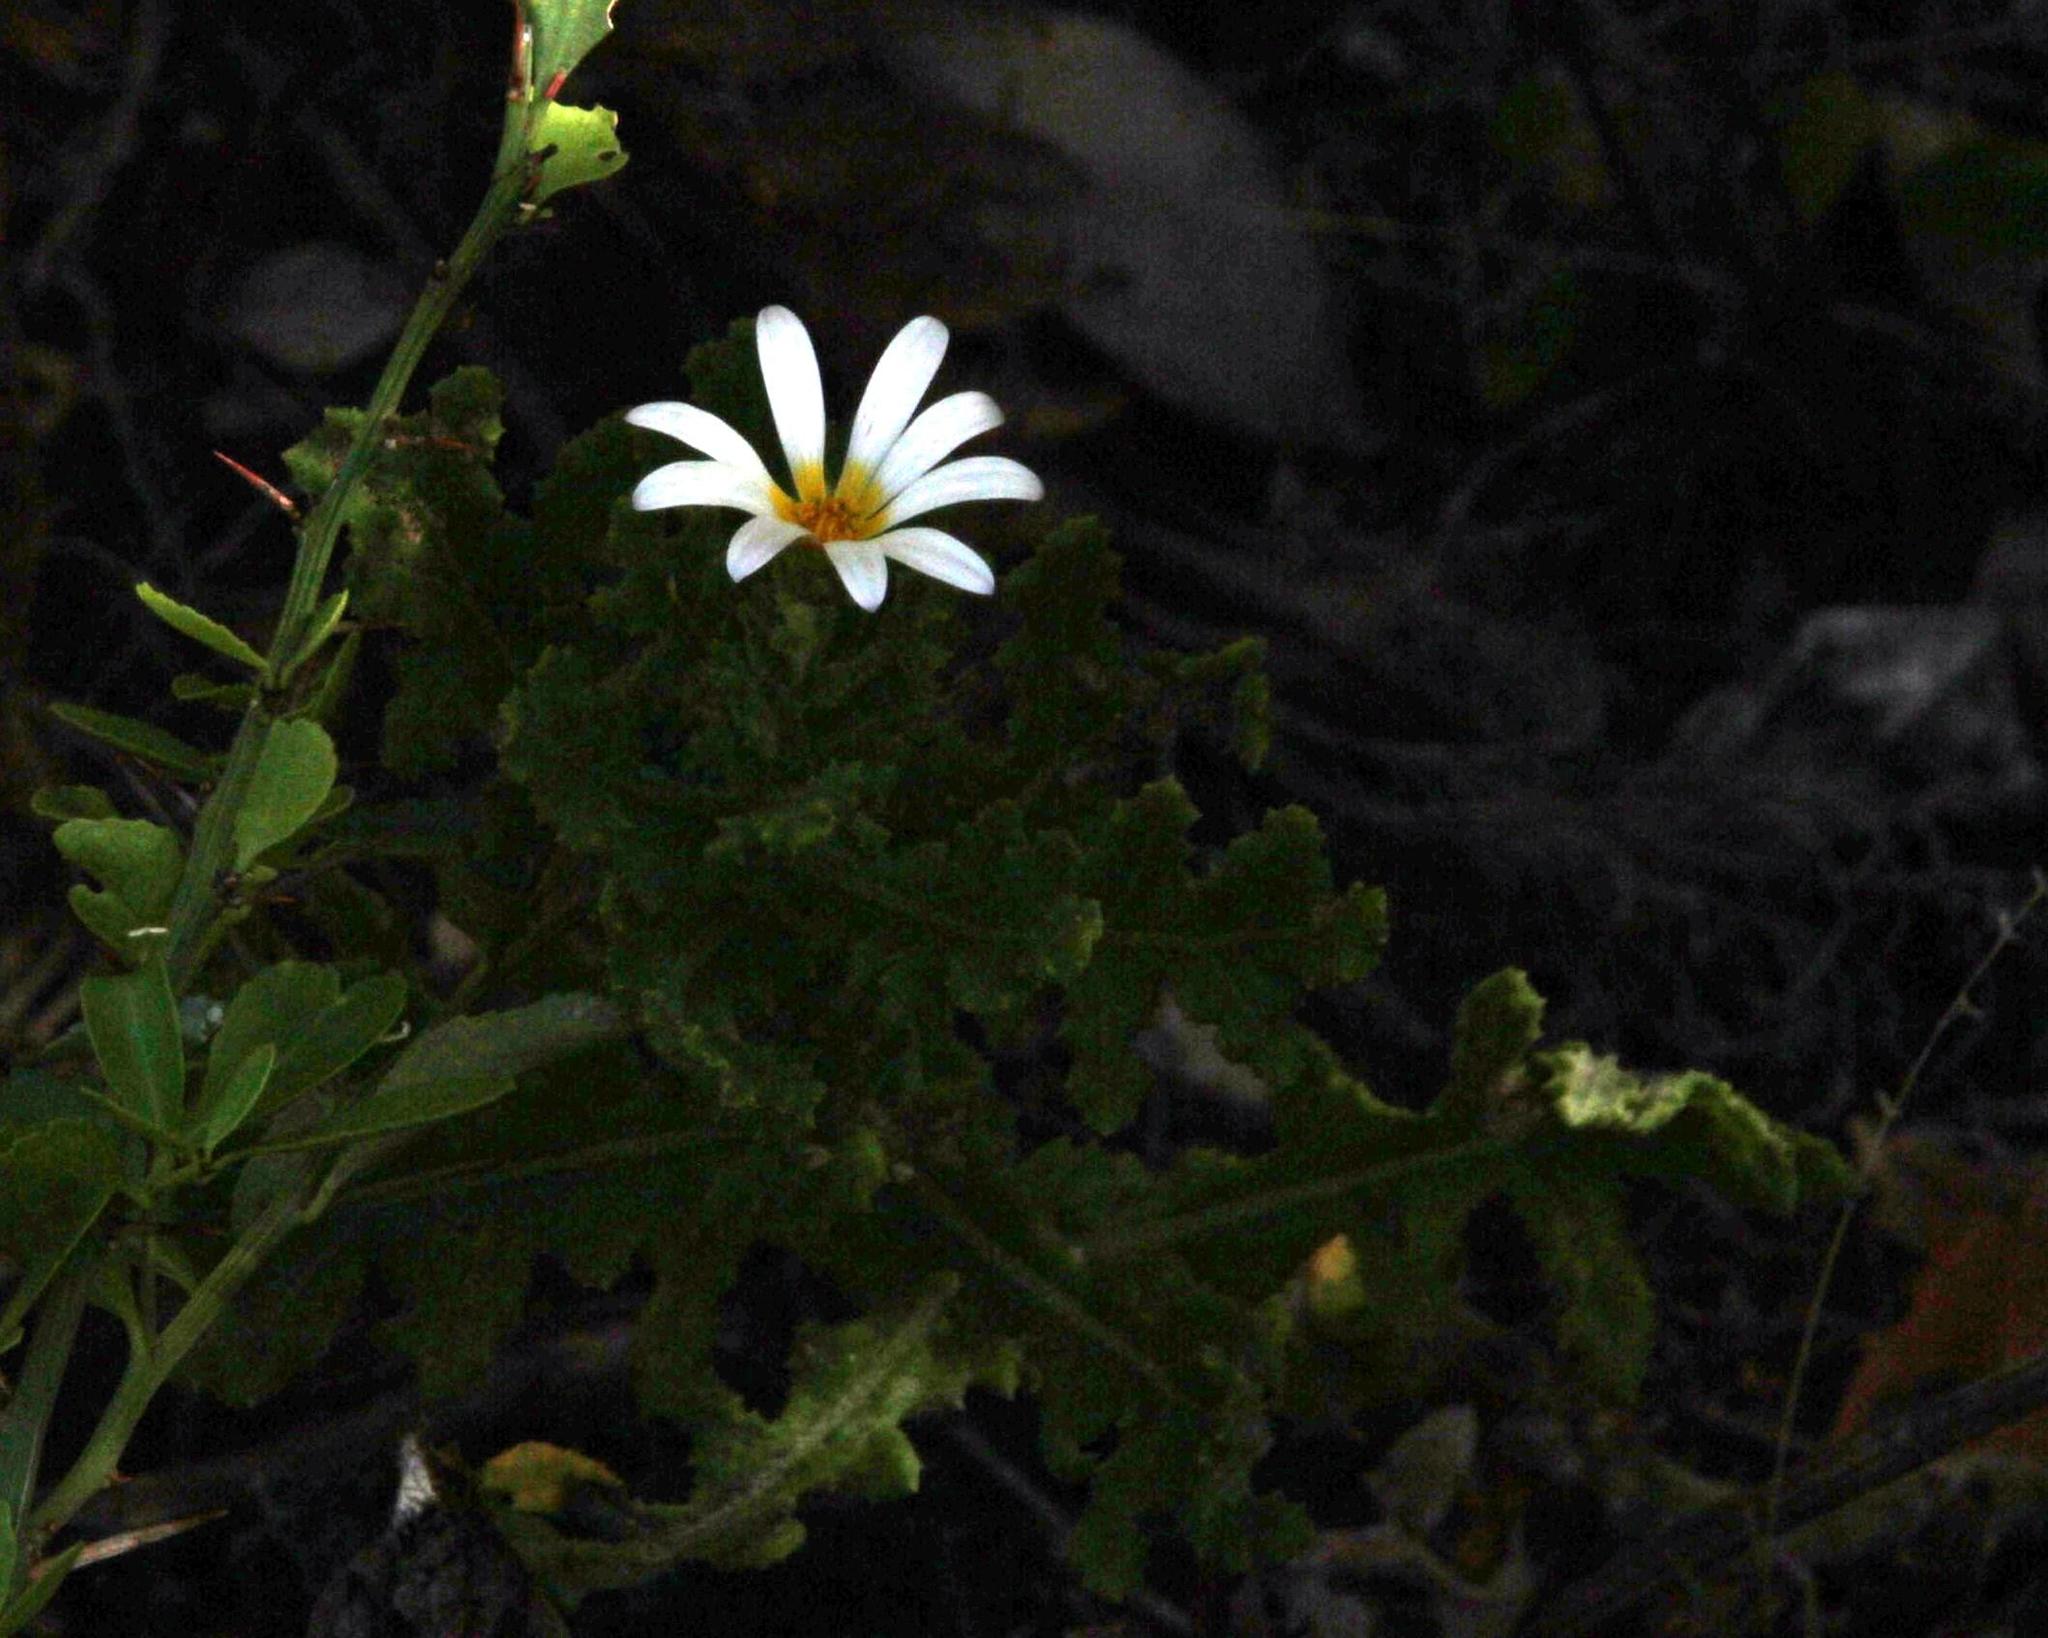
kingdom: Plantae
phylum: Tracheophyta
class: Magnoliopsida
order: Asterales
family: Asteraceae
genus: Arctotis
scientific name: Arctotis aspera
